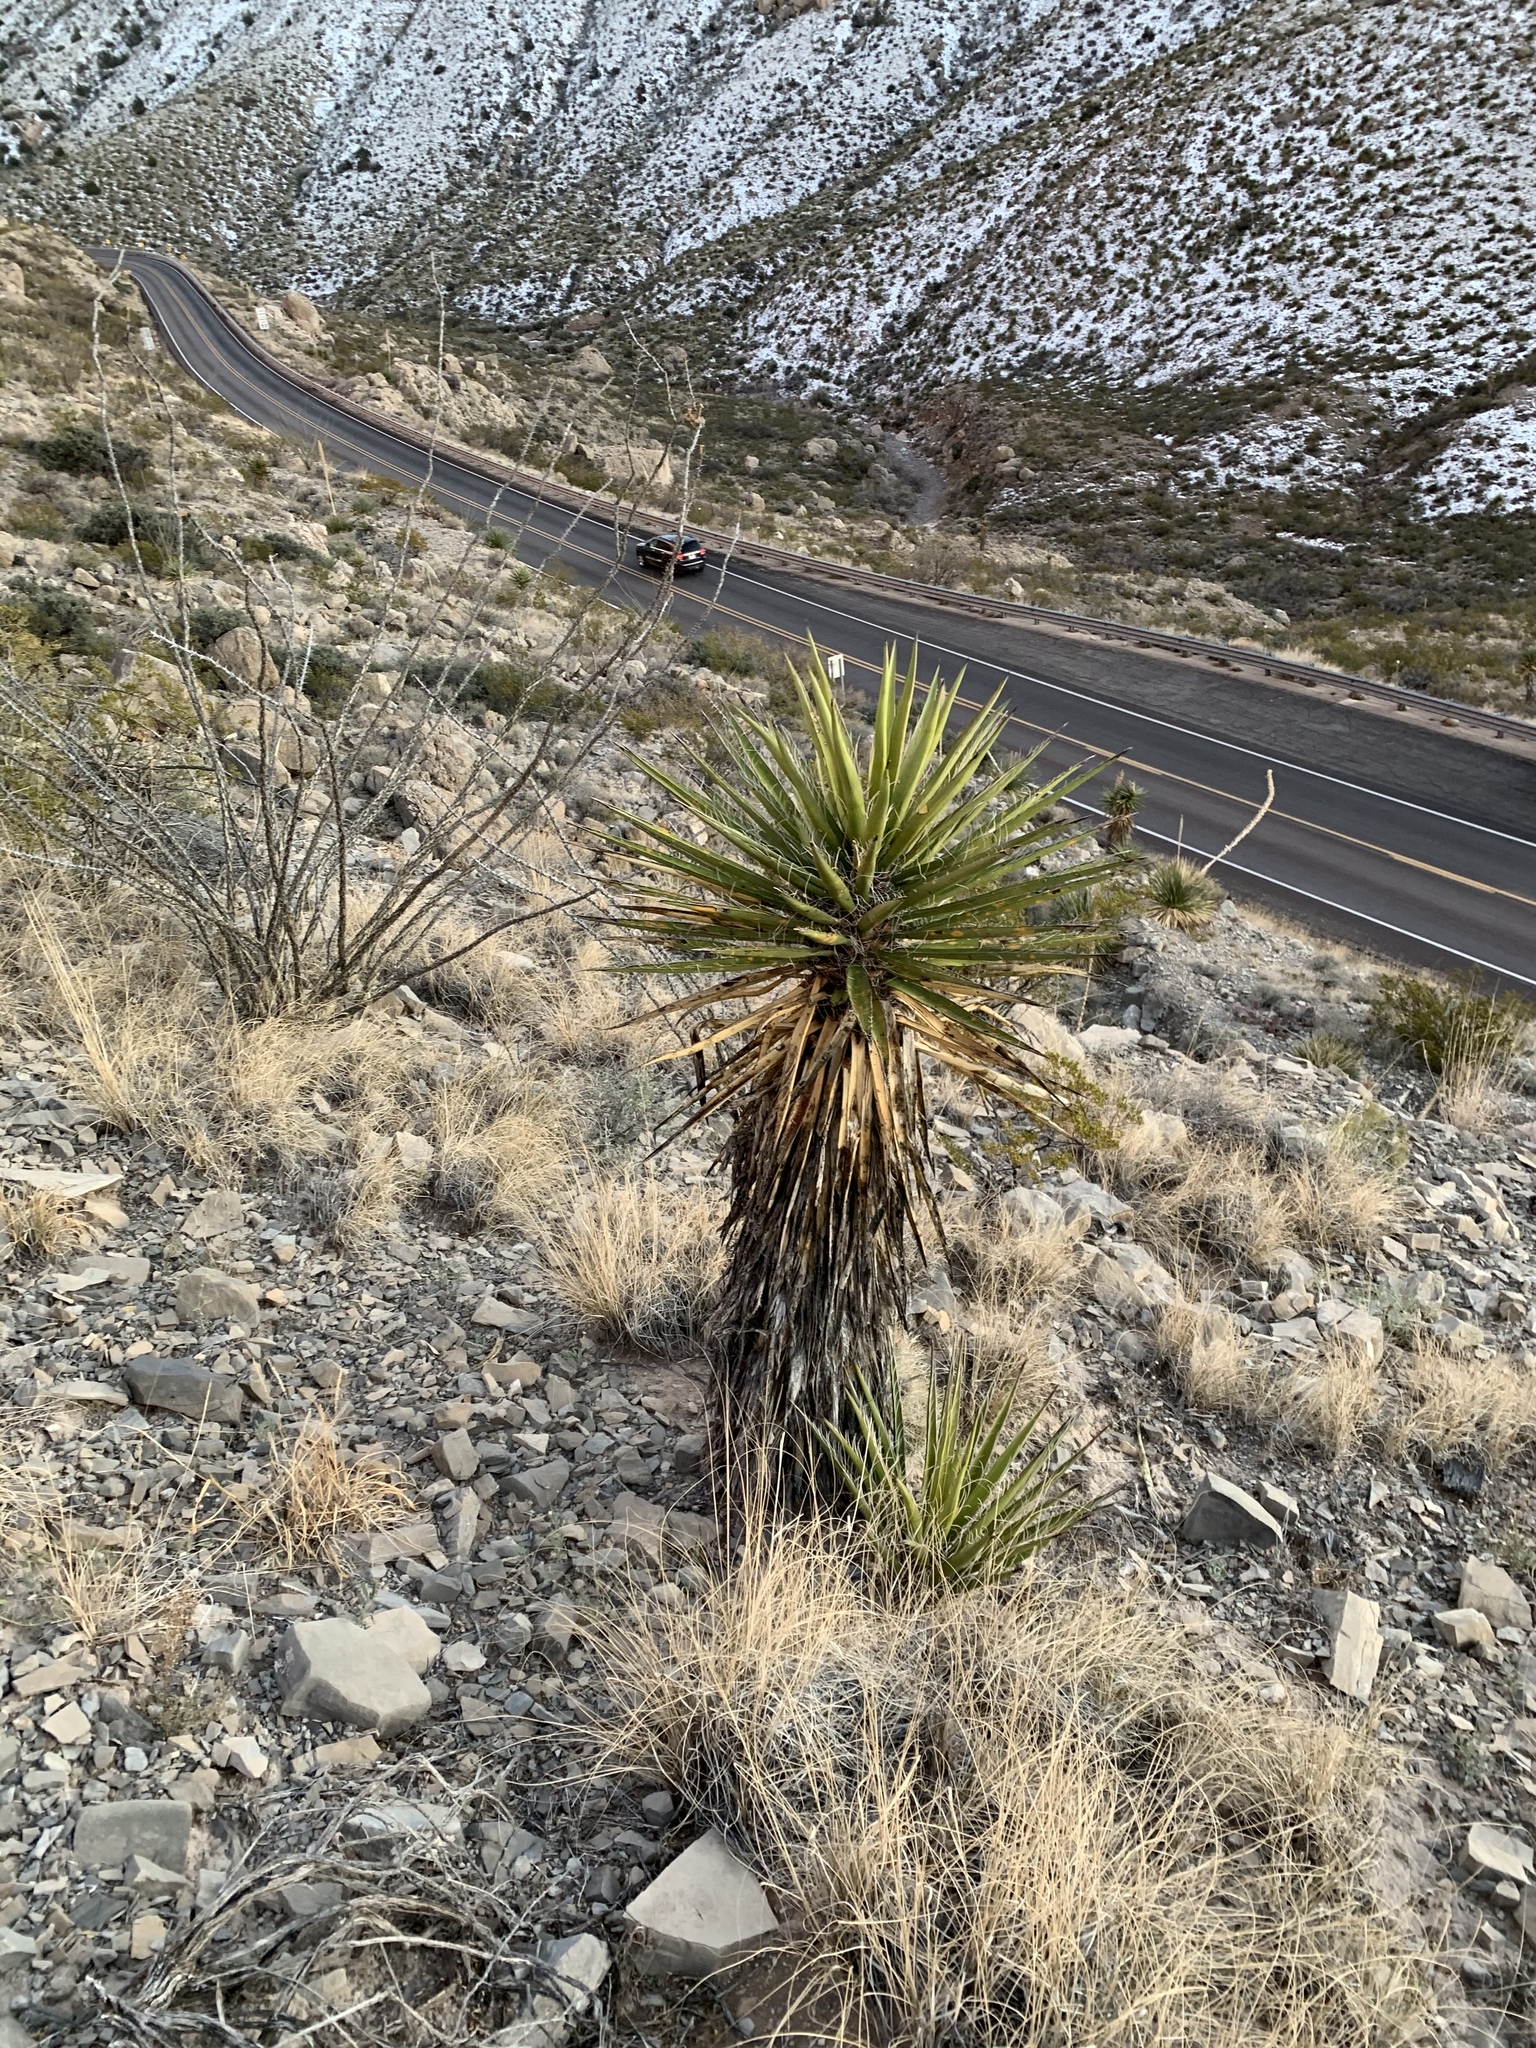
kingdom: Plantae
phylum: Tracheophyta
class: Liliopsida
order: Asparagales
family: Asparagaceae
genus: Yucca
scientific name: Yucca treculiana
